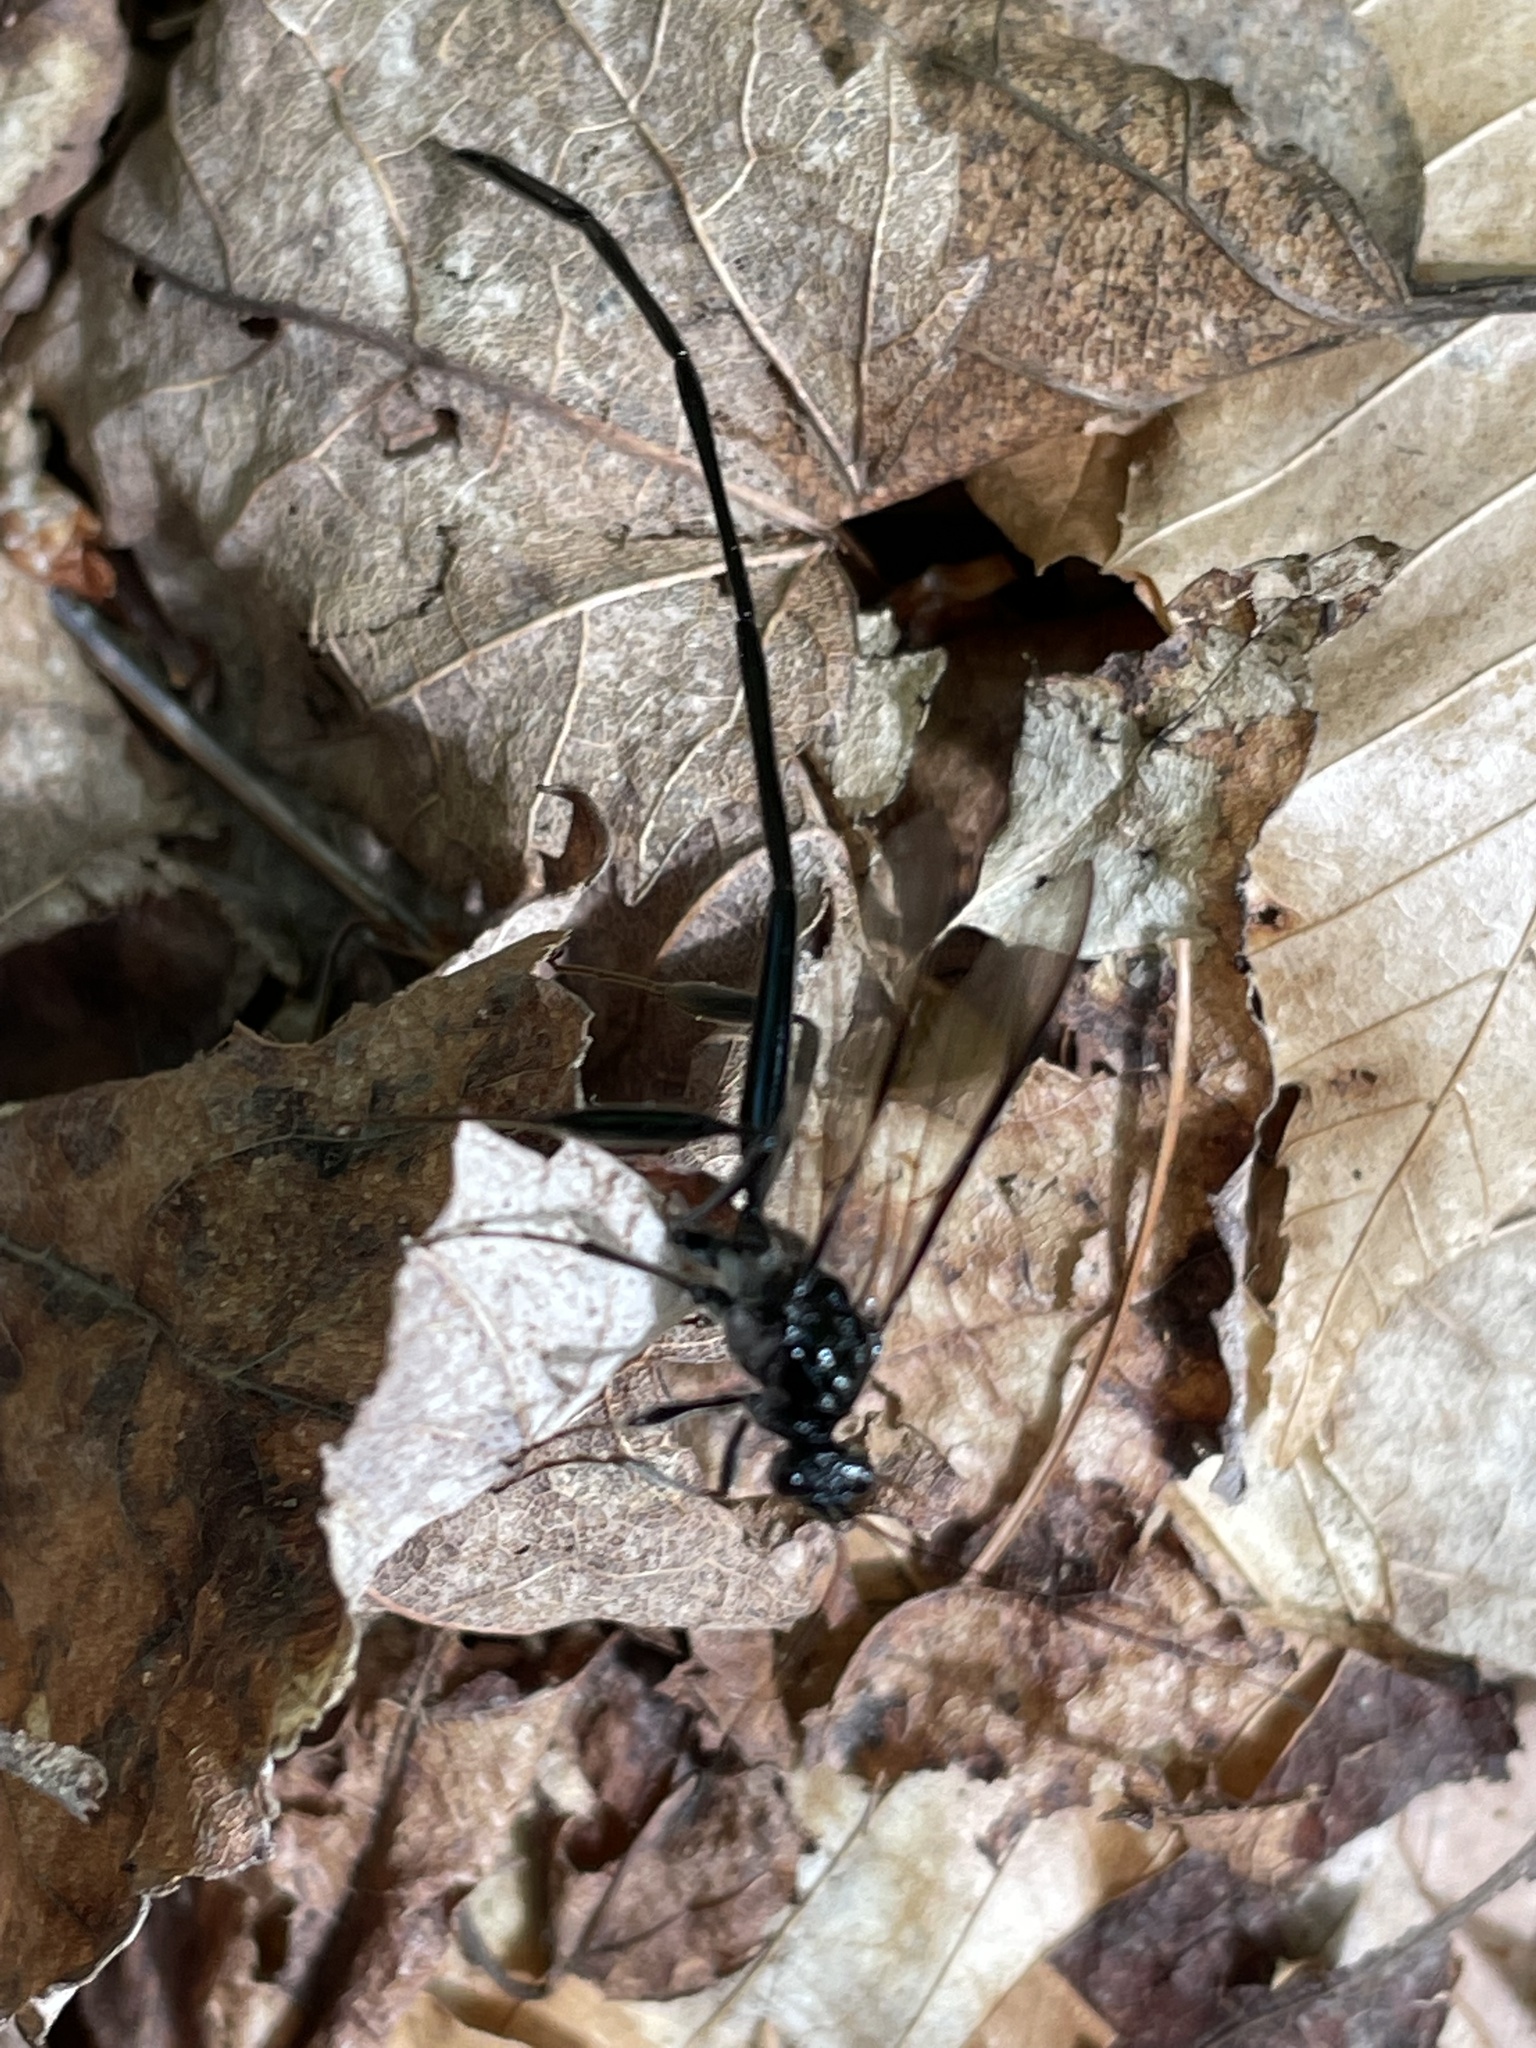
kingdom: Animalia
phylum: Arthropoda
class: Insecta
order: Hymenoptera
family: Pelecinidae
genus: Pelecinus
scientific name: Pelecinus polyturator
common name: American pelecinid wasp
